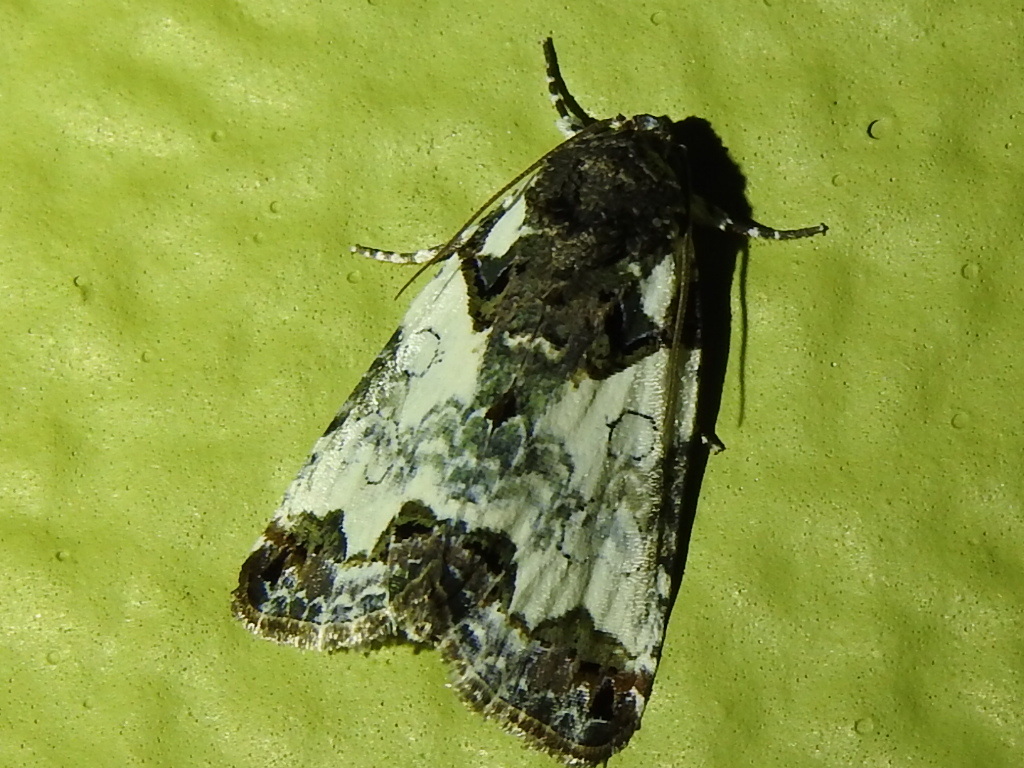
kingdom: Animalia
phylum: Arthropoda
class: Insecta
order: Lepidoptera
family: Noctuidae
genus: Cerma
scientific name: Cerma cerintha
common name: Tufted bird-dropping moth
